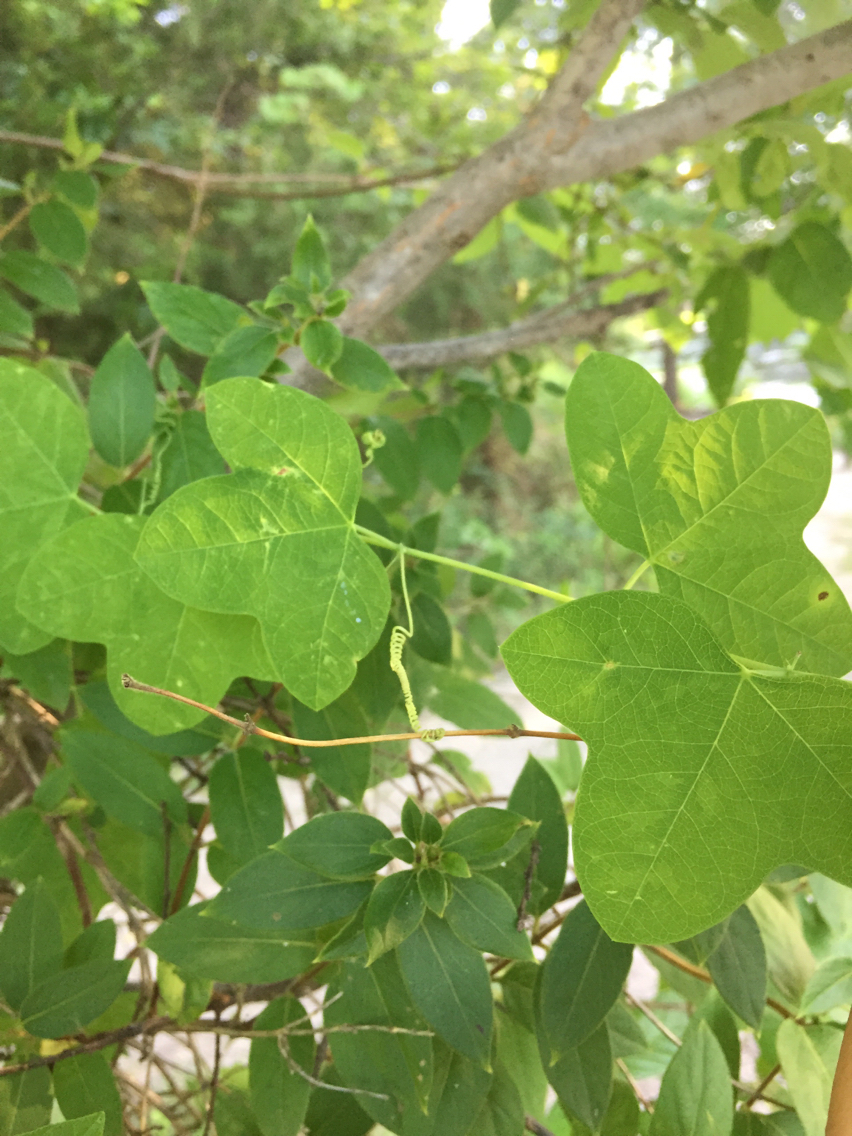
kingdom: Plantae
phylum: Tracheophyta
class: Magnoliopsida
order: Malpighiales
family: Passifloraceae
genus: Passiflora
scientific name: Passiflora lutea
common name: Yellow passionflower
